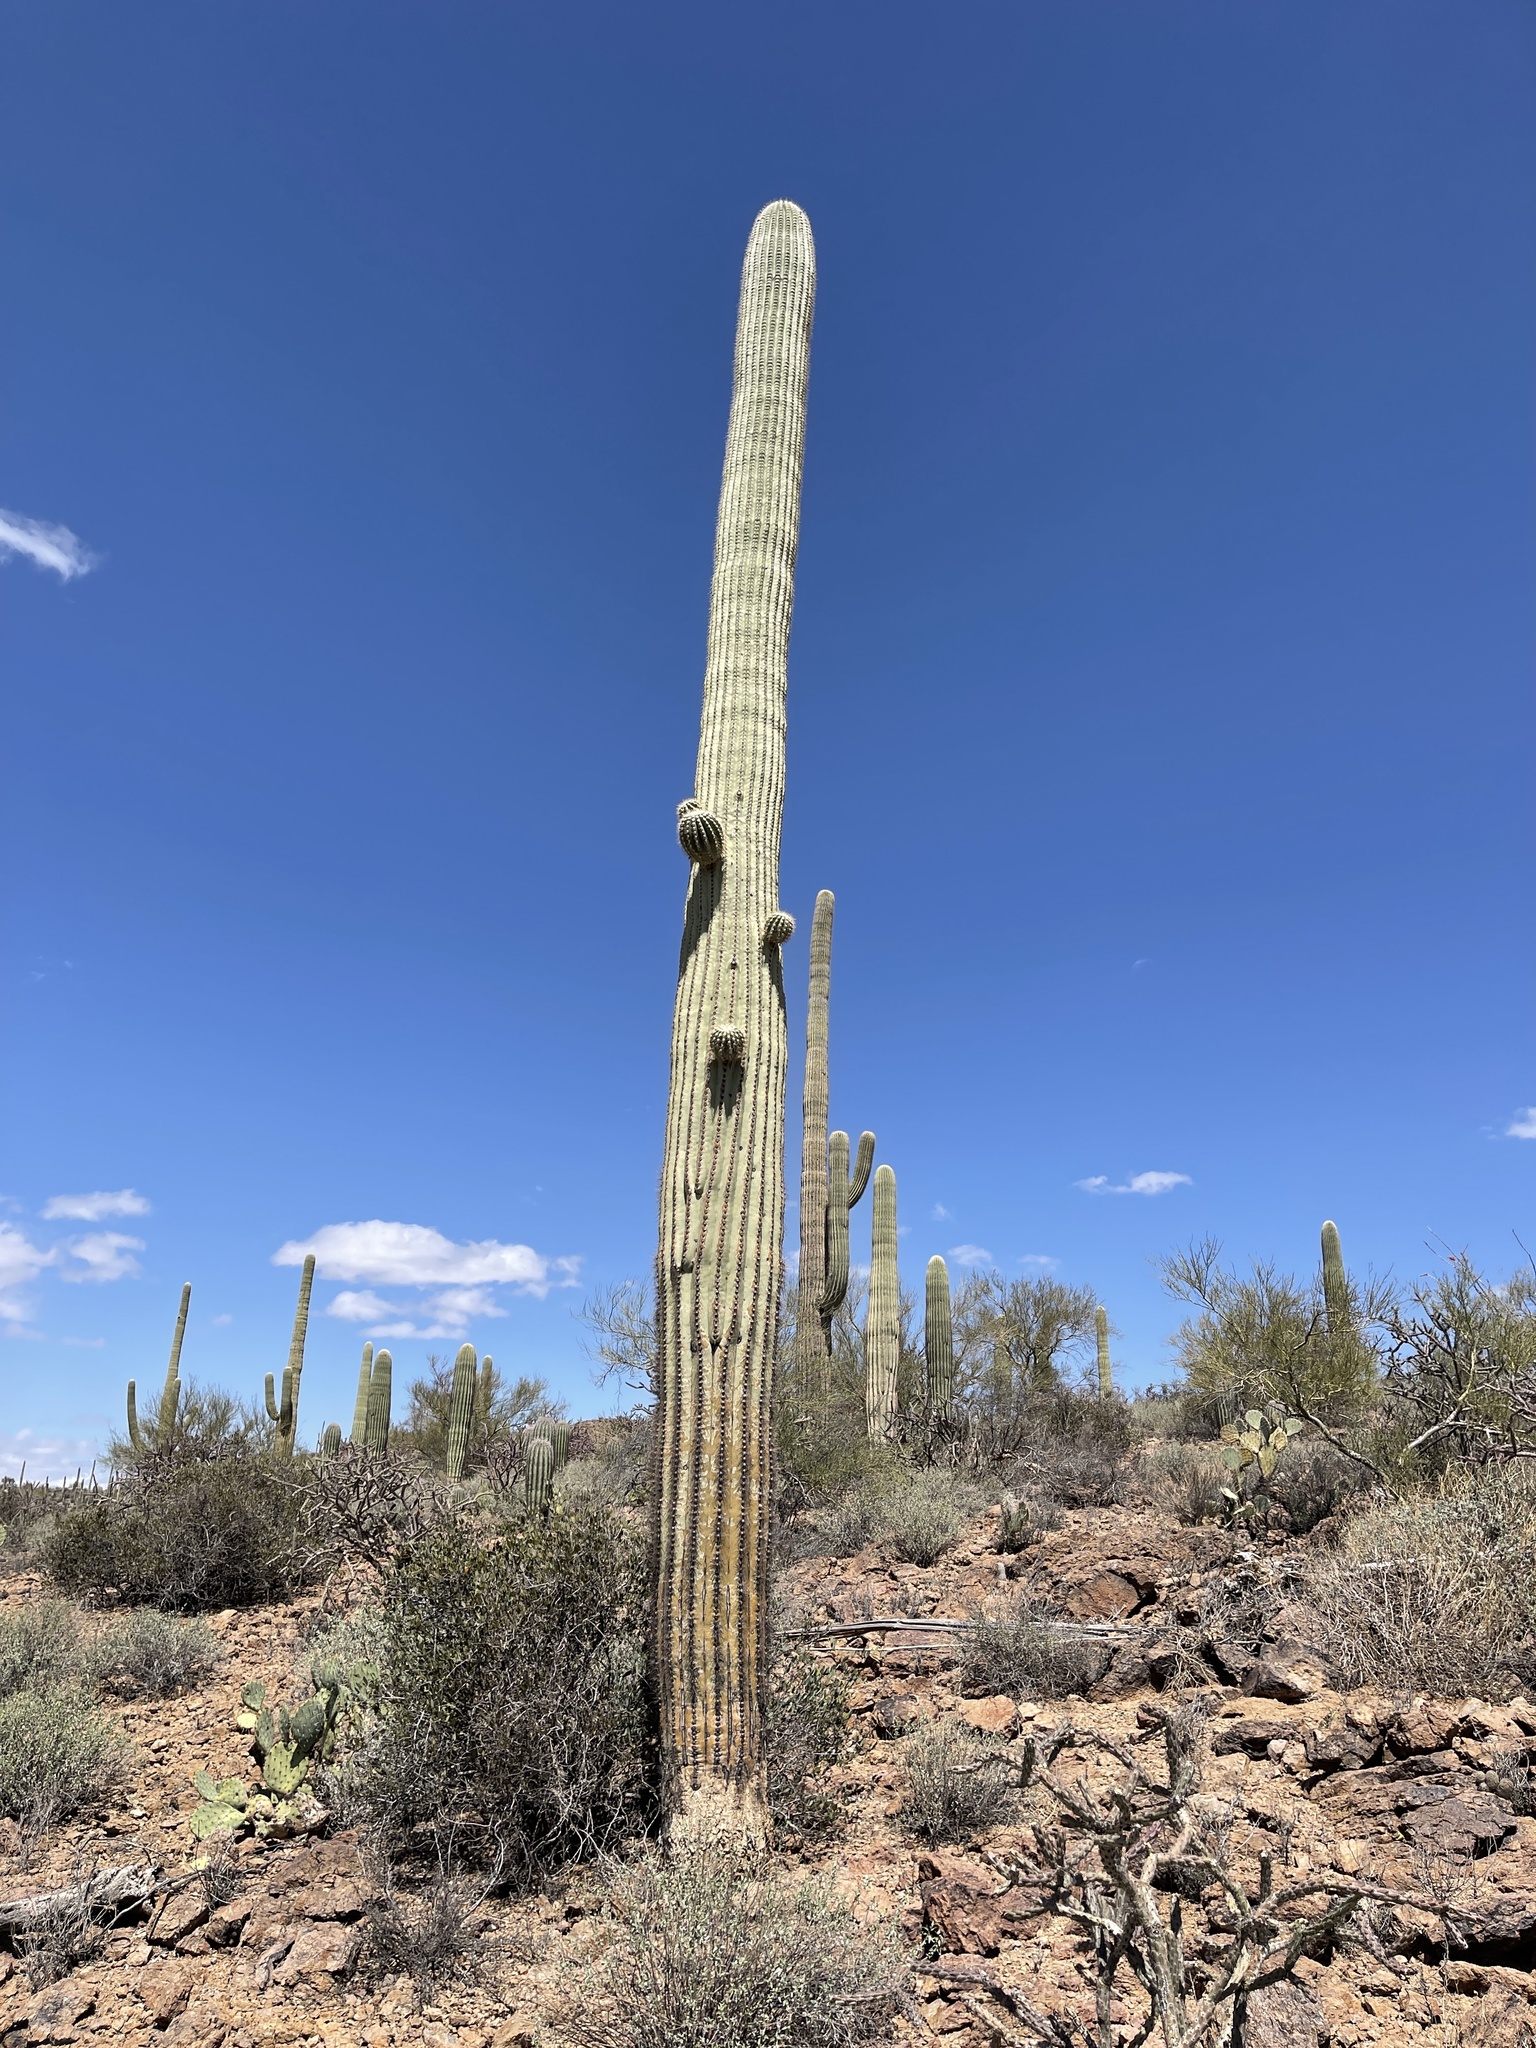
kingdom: Plantae
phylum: Tracheophyta
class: Magnoliopsida
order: Caryophyllales
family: Cactaceae
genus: Carnegiea
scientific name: Carnegiea gigantea
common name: Saguaro
